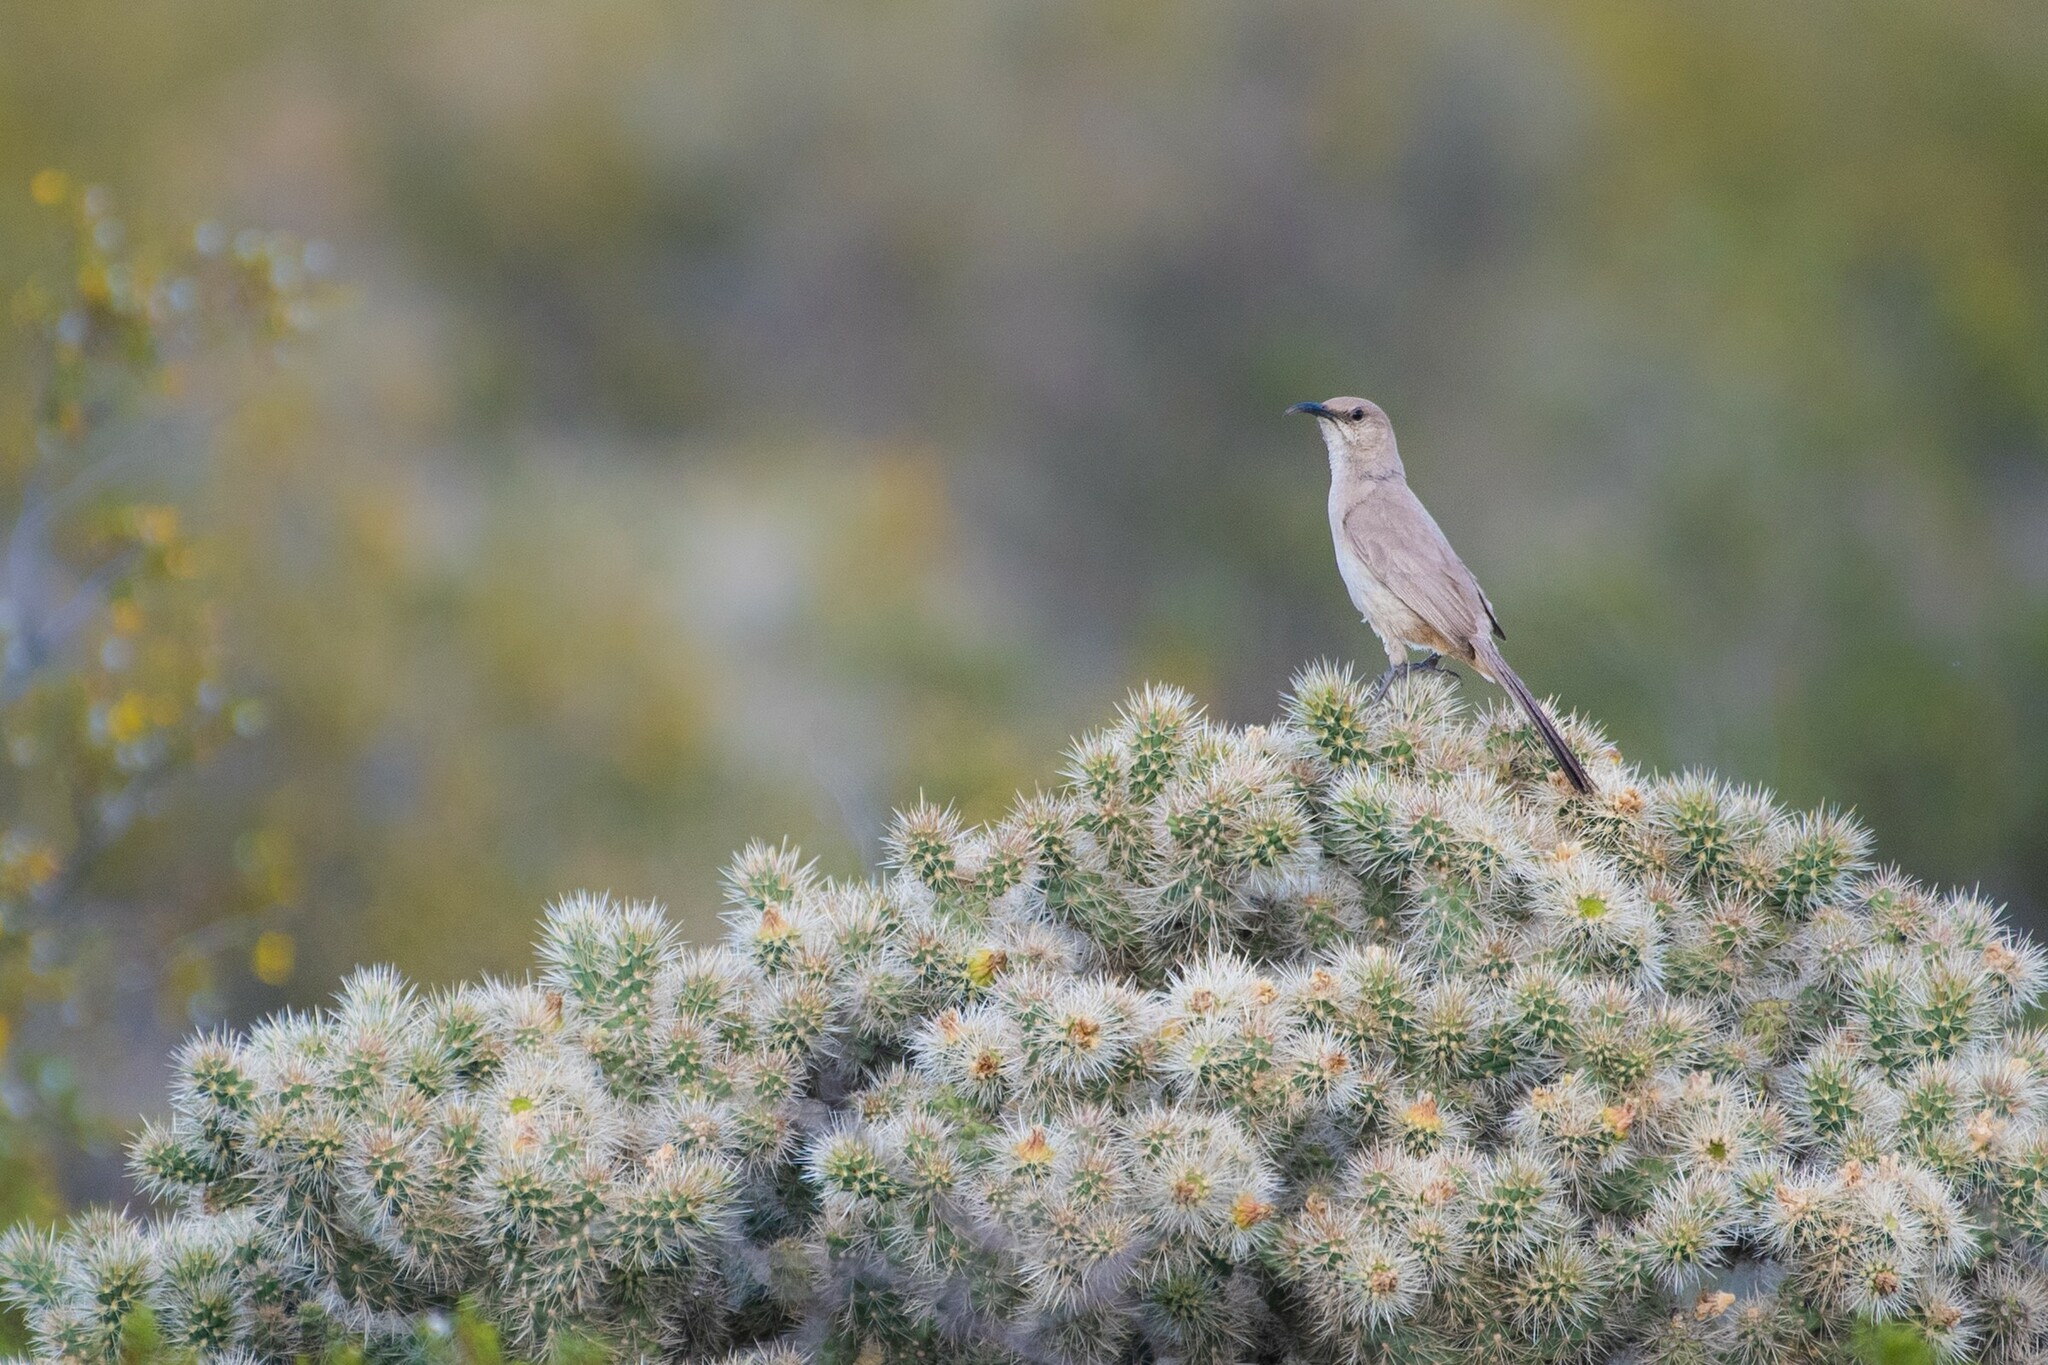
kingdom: Animalia
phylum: Chordata
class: Aves
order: Passeriformes
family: Mimidae
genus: Toxostoma
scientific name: Toxostoma lecontei
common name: Le conte's thrasher
